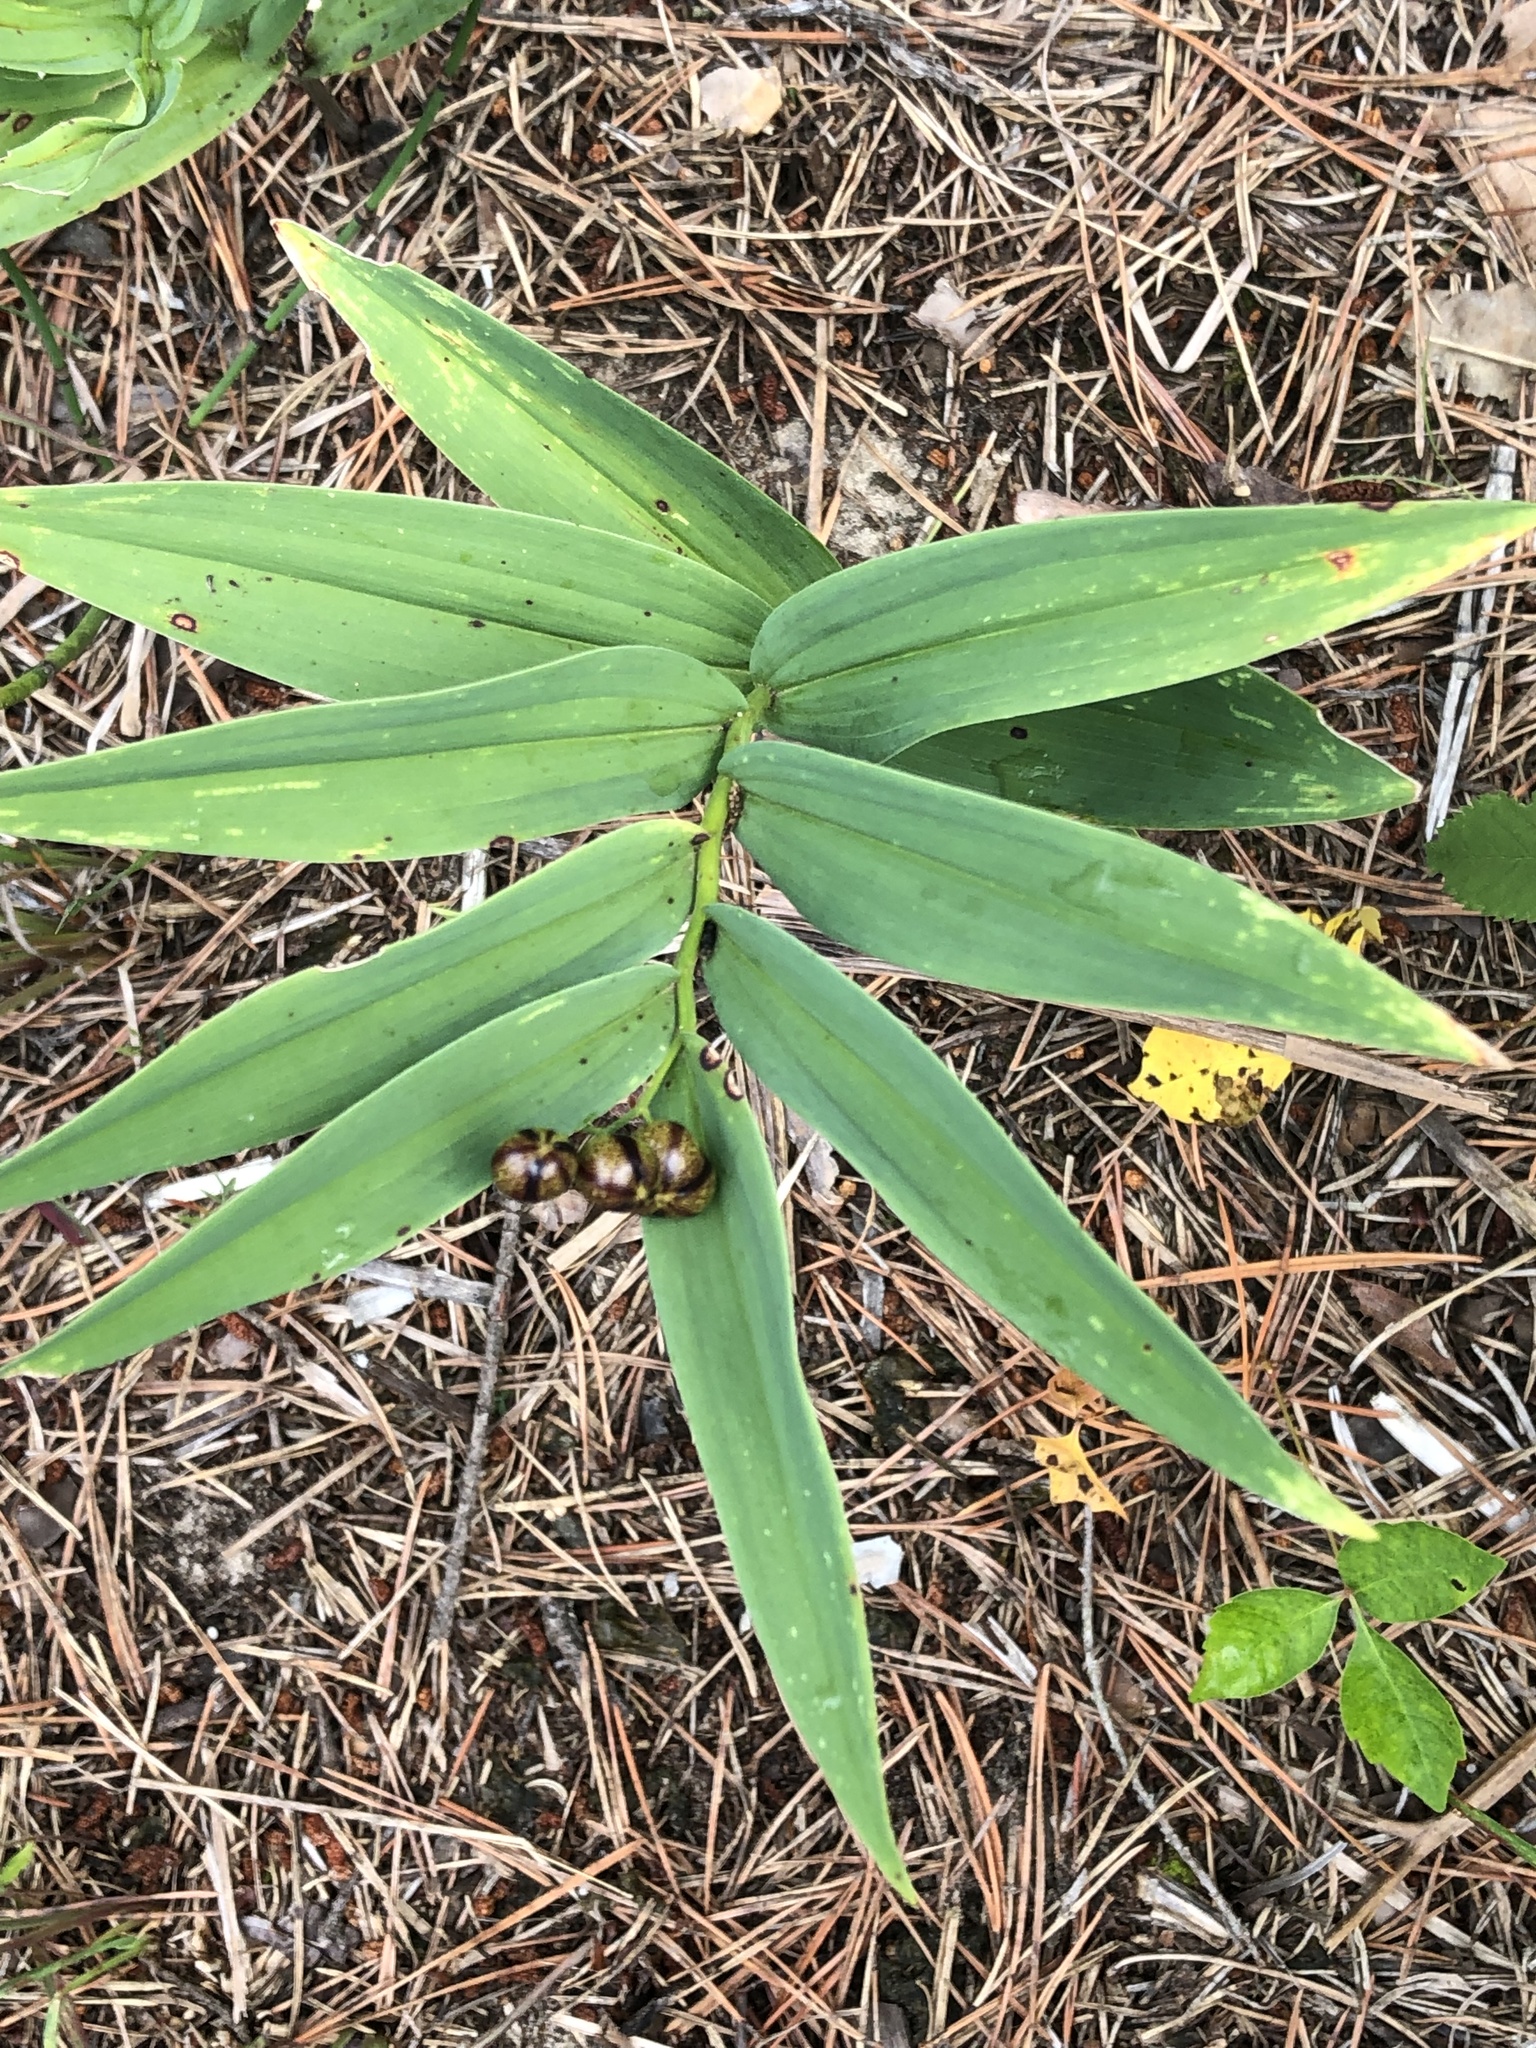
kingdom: Plantae
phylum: Tracheophyta
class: Liliopsida
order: Asparagales
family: Asparagaceae
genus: Maianthemum
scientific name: Maianthemum stellatum
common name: Little false solomon's seal
